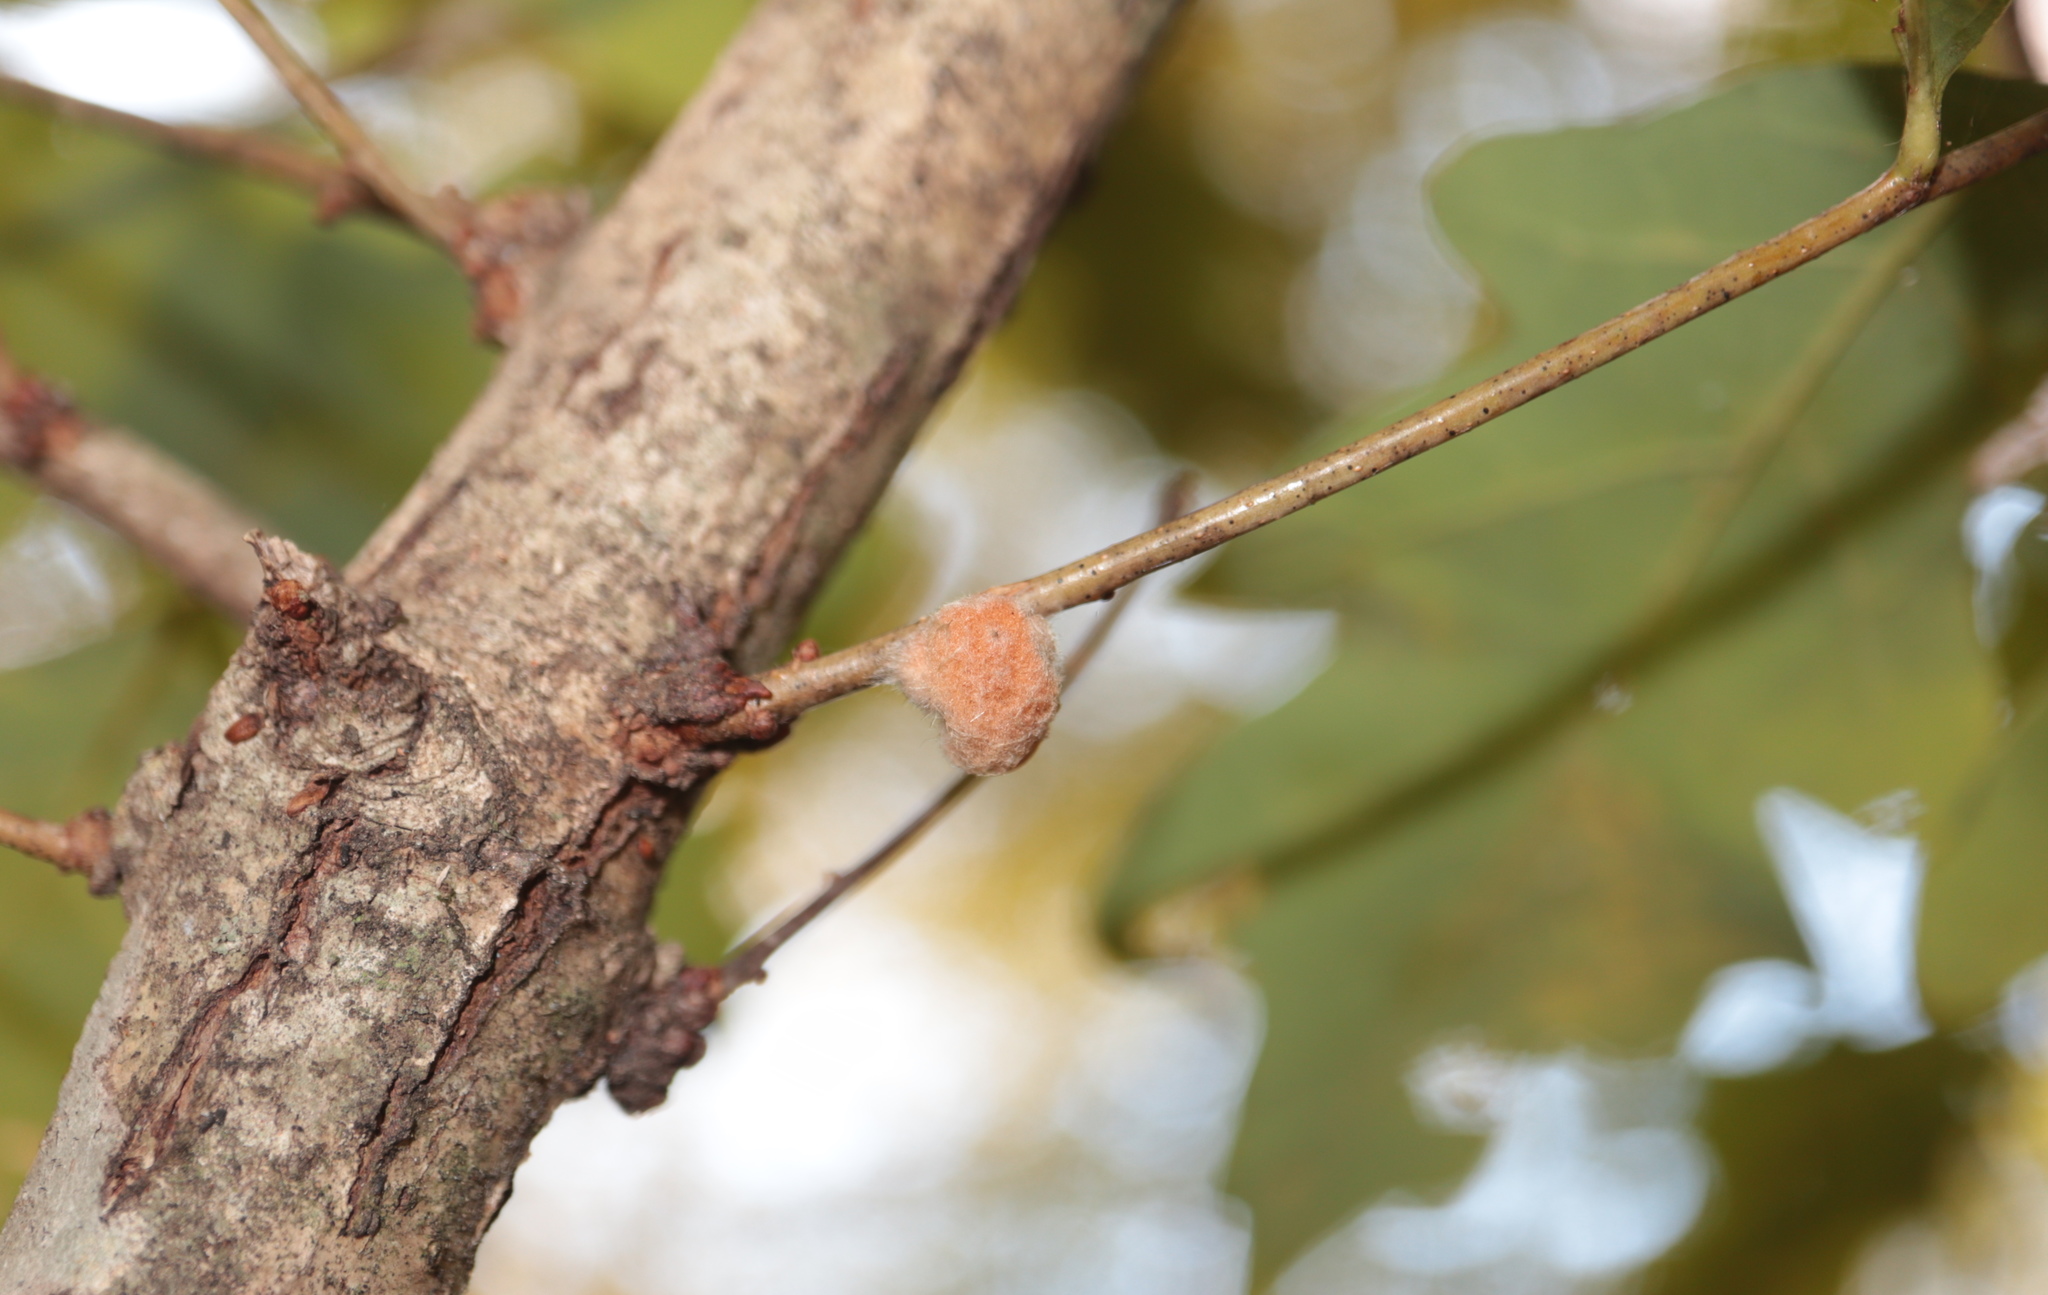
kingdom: Animalia
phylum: Arthropoda
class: Insecta
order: Hymenoptera
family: Cynipidae
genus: Andricus
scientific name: Andricus quercusflocci
